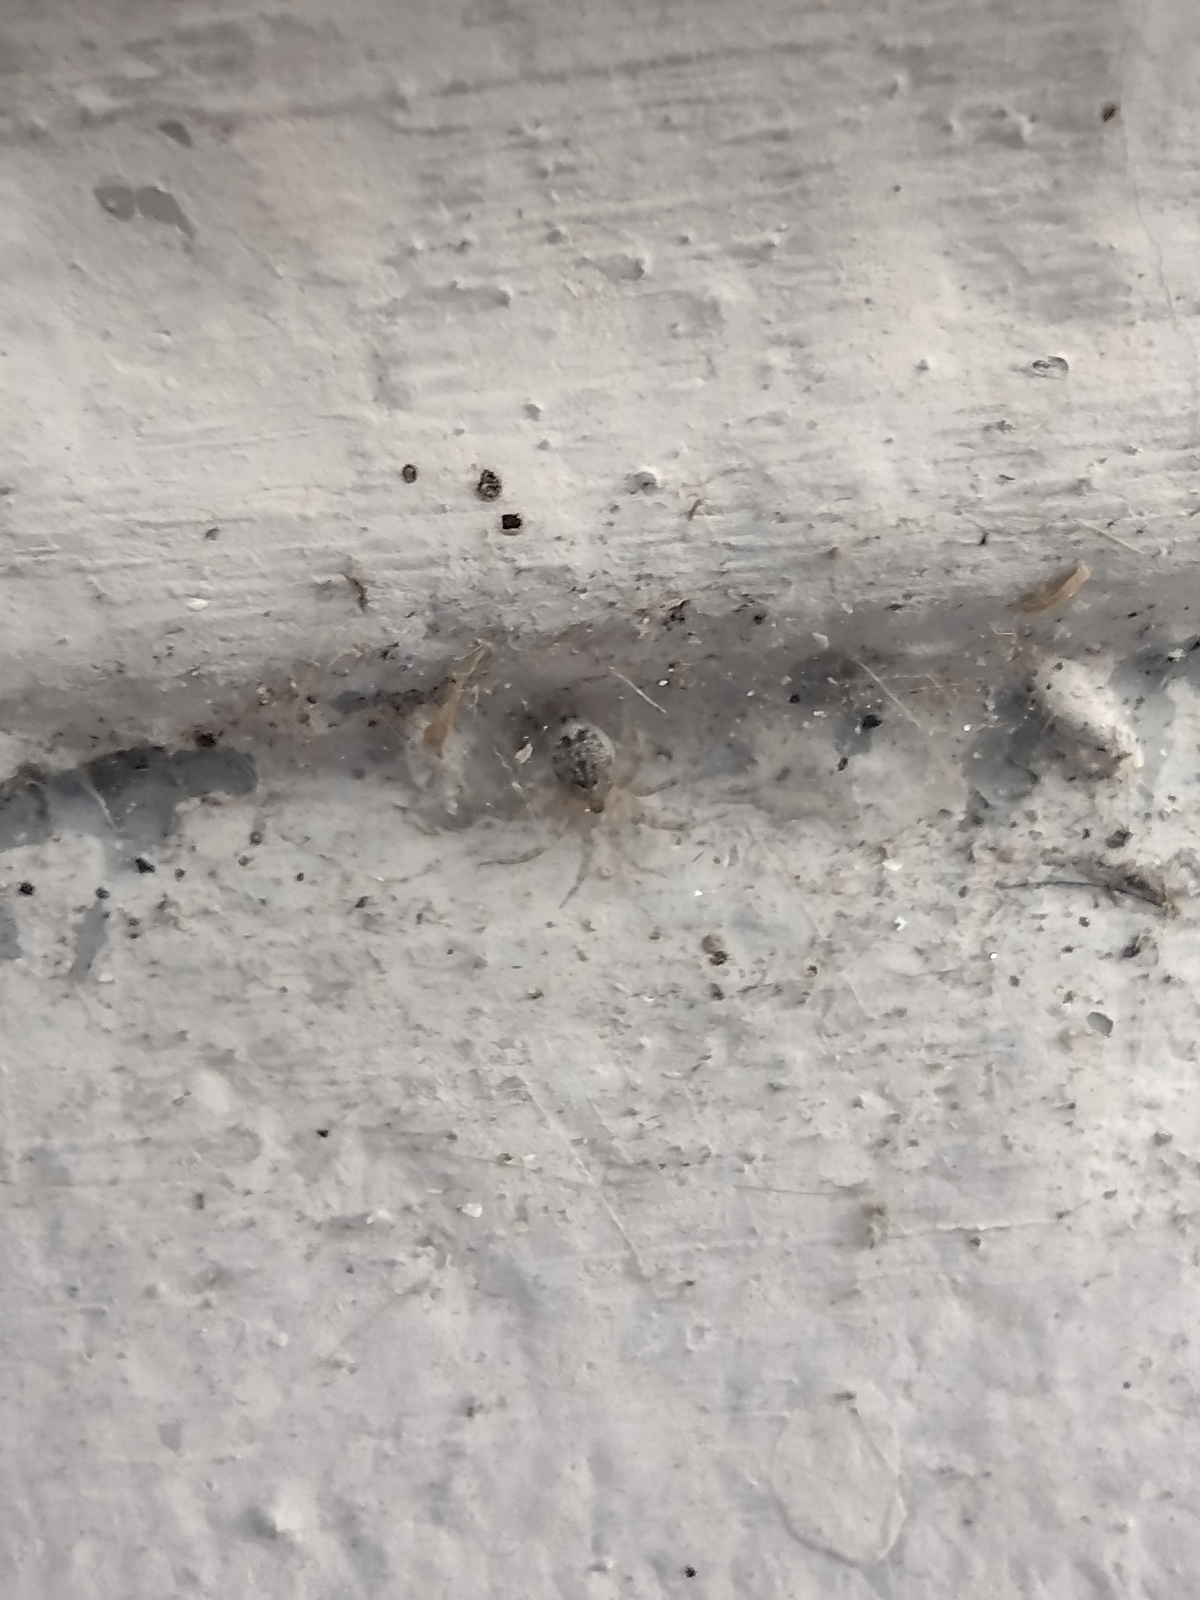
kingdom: Animalia
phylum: Arthropoda
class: Arachnida
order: Araneae
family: Oecobiidae
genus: Oecobius
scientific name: Oecobius navus
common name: Flatmesh weaver
